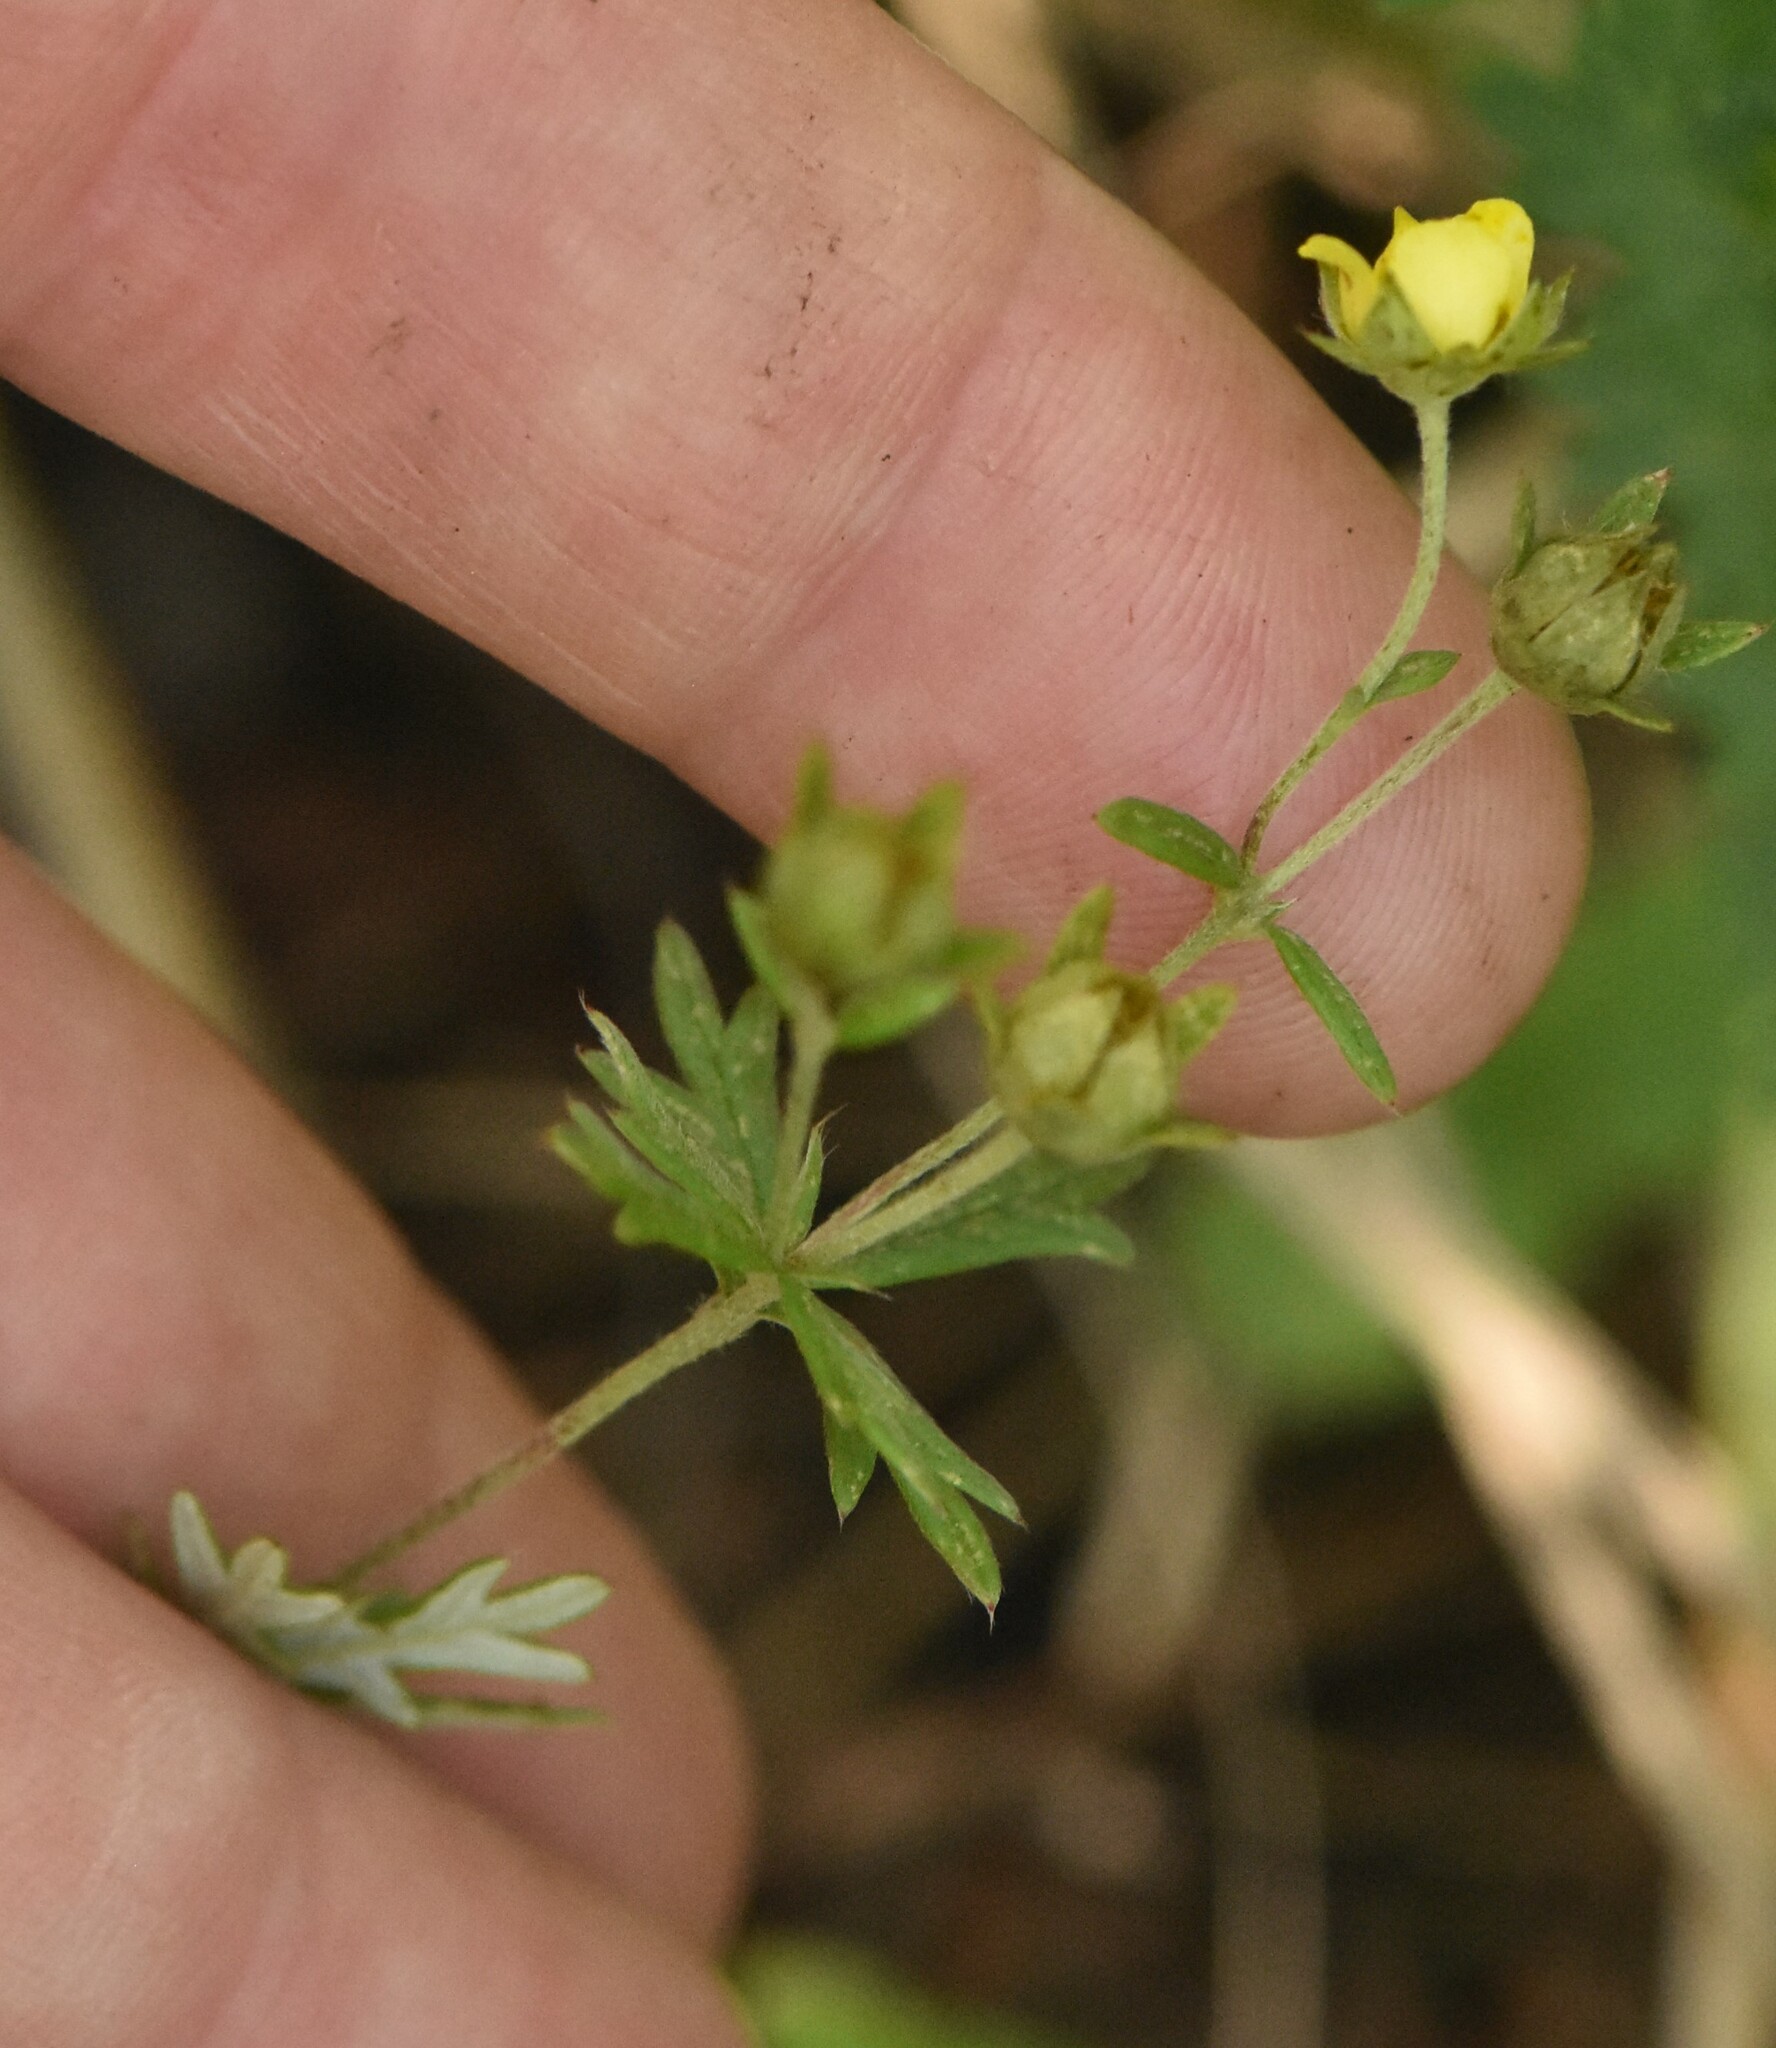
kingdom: Plantae
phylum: Tracheophyta
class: Magnoliopsida
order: Rosales
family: Rosaceae
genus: Potentilla
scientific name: Potentilla argentea
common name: Hoary cinquefoil
